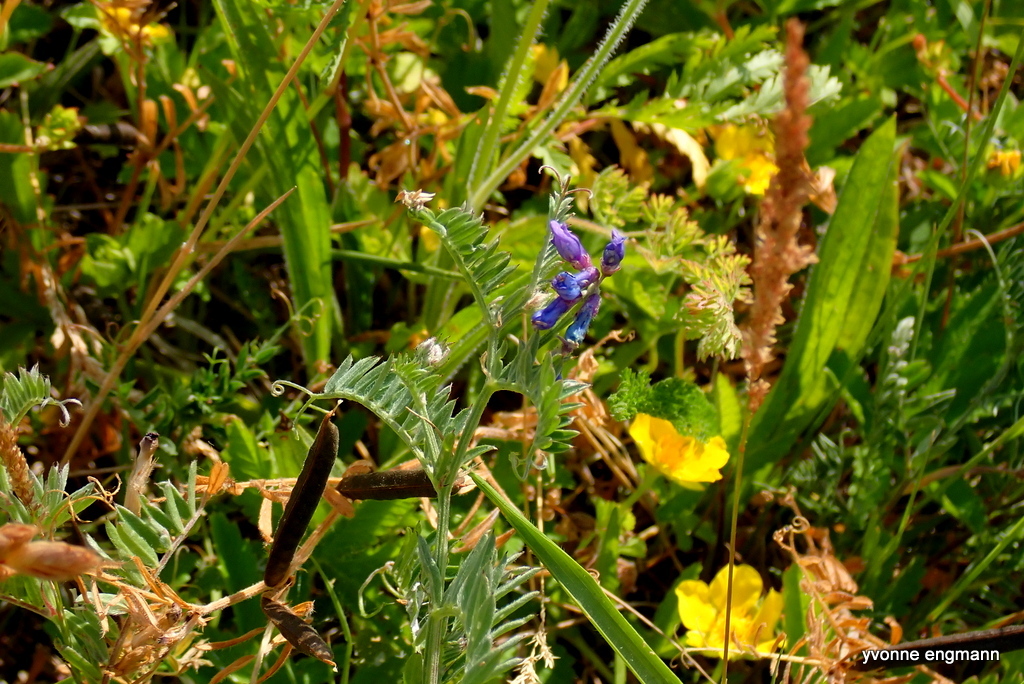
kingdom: Plantae
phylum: Tracheophyta
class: Magnoliopsida
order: Fabales
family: Fabaceae
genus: Vicia
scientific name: Vicia cracca
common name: Bird vetch
